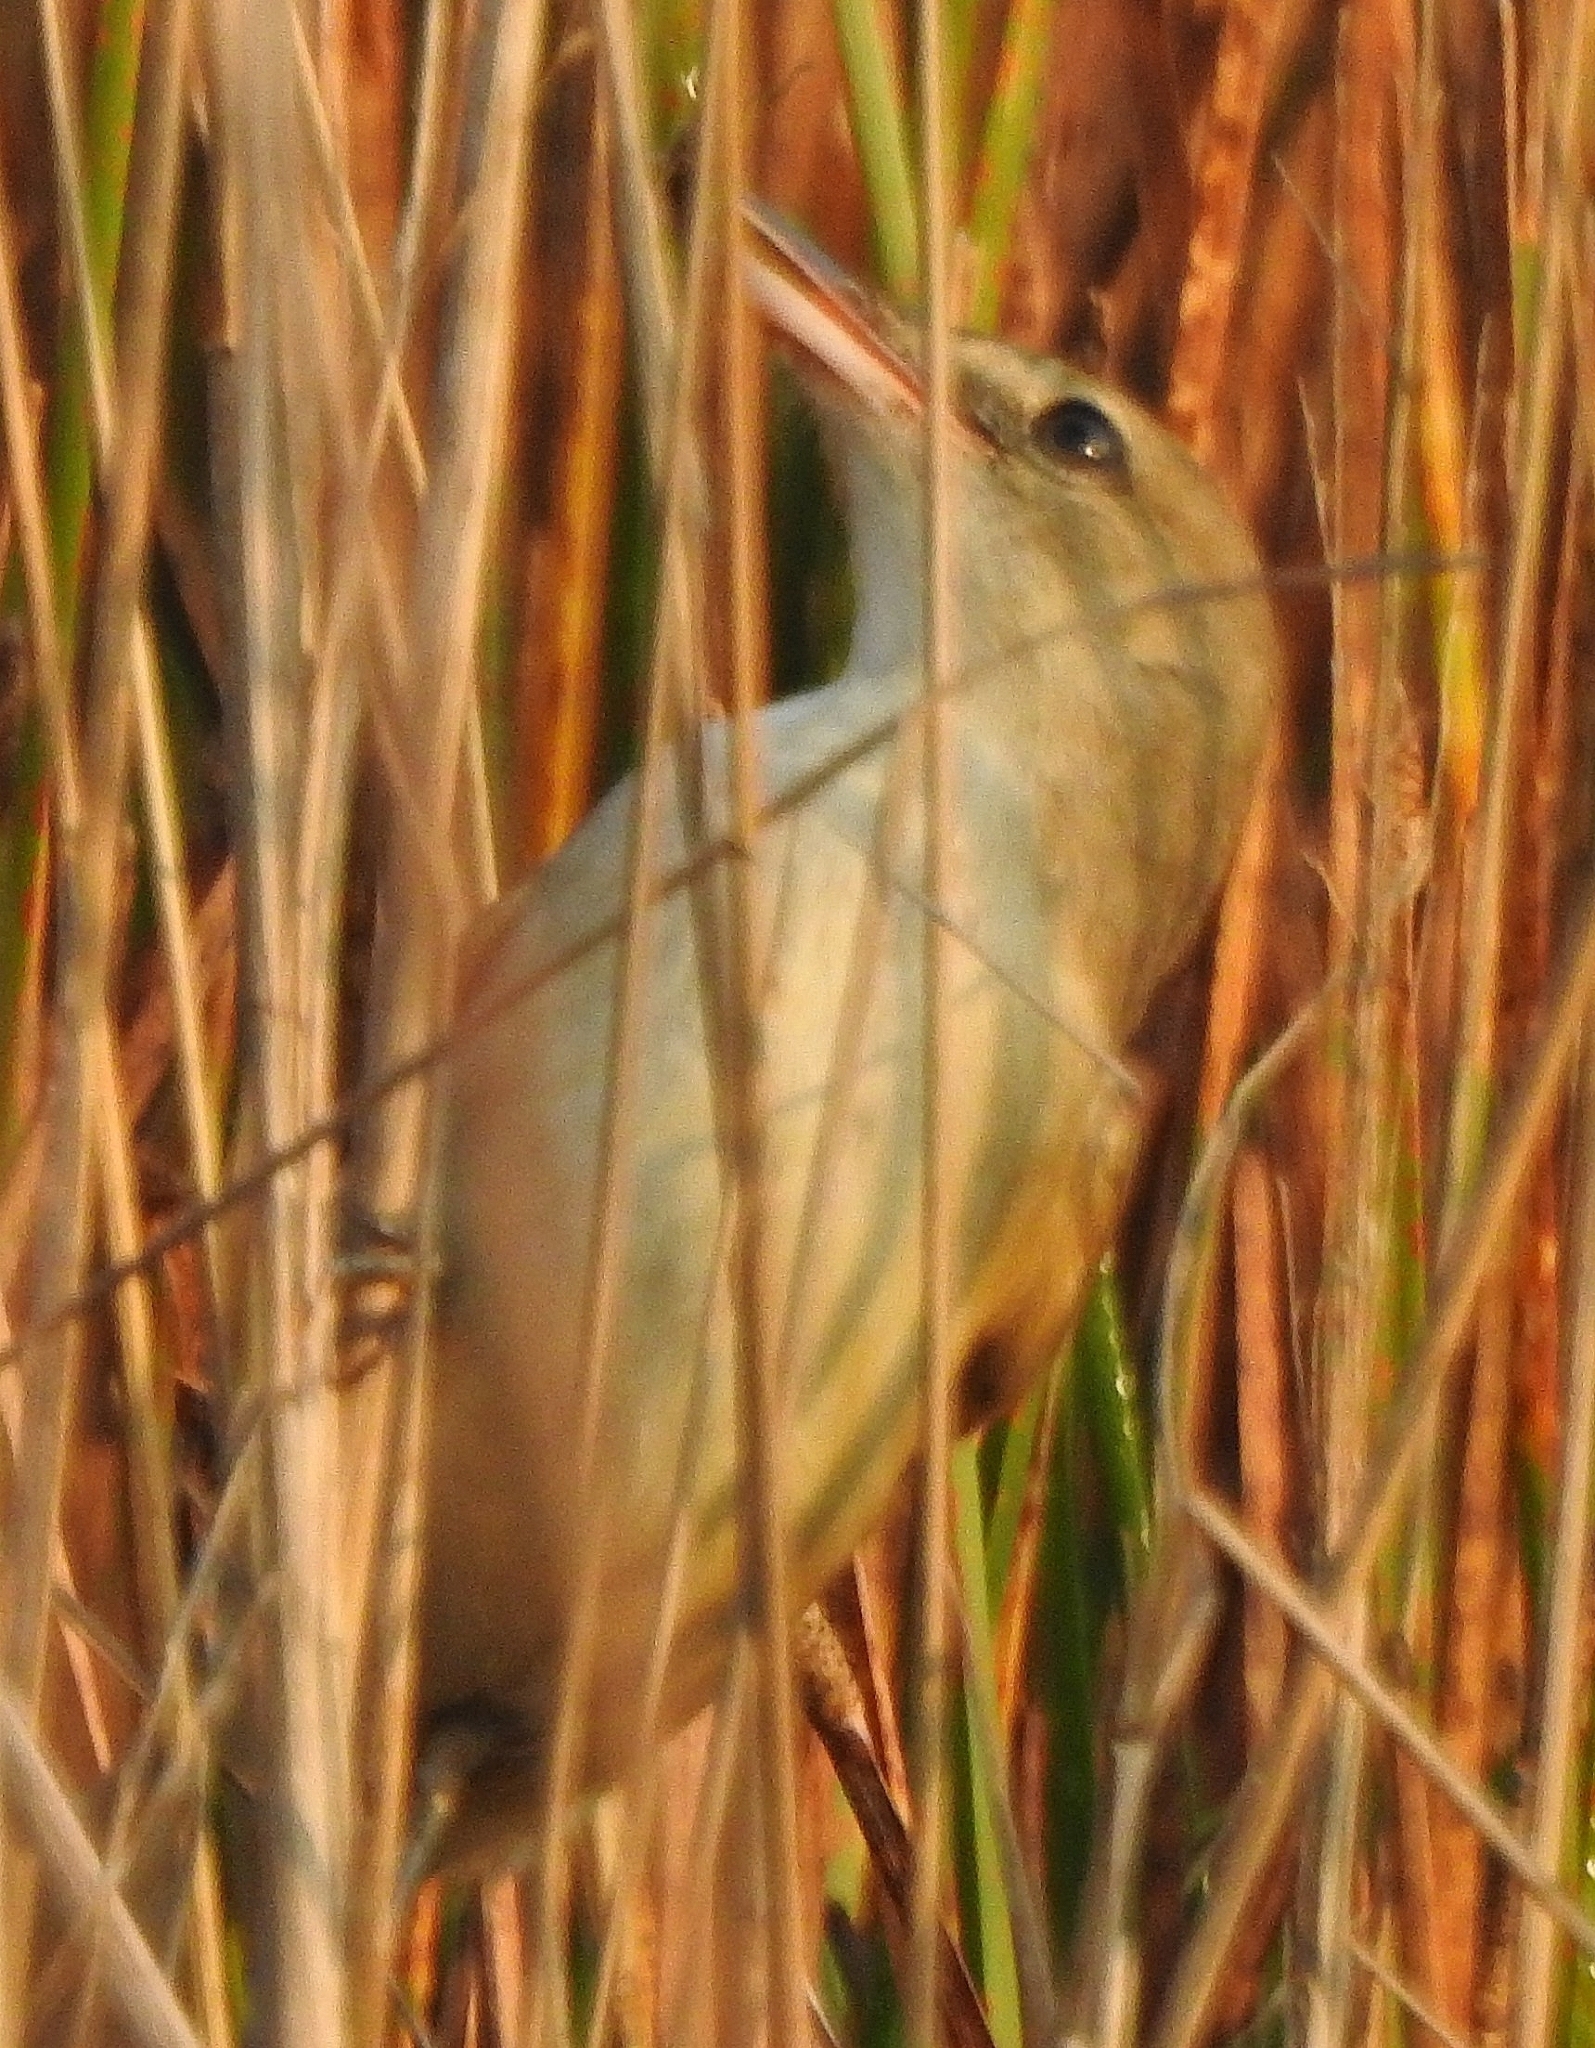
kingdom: Animalia
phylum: Chordata
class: Aves
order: Passeriformes
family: Acrocephalidae
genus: Acrocephalus
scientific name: Acrocephalus stentoreus
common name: Clamorous reed warbler
